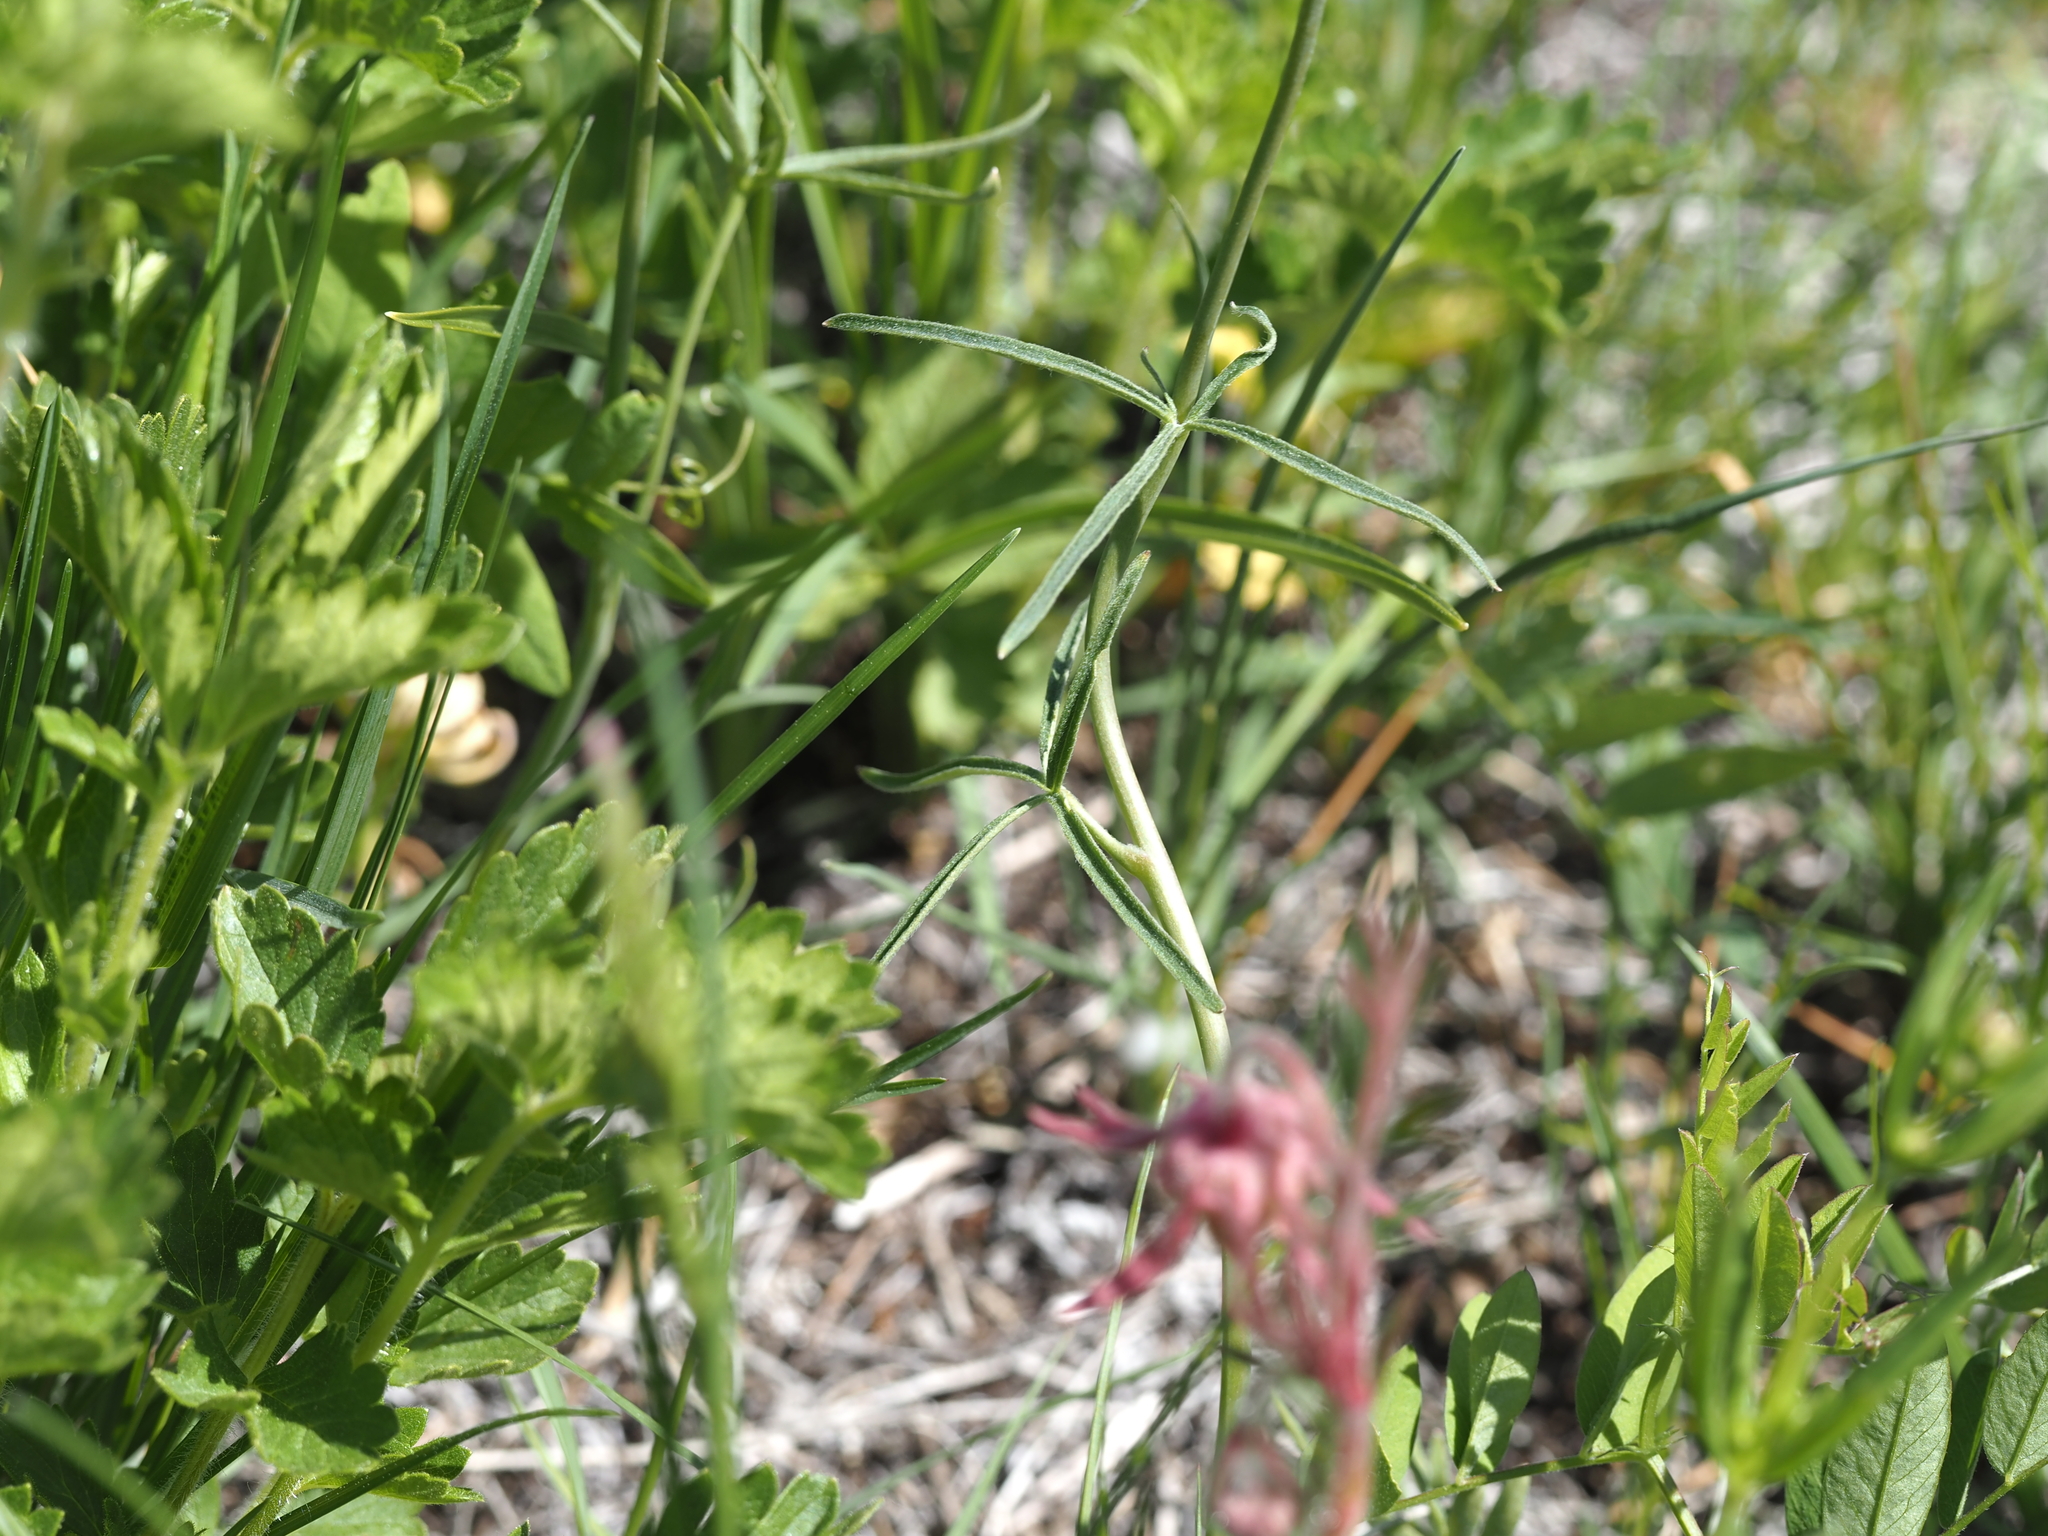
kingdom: Plantae
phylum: Tracheophyta
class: Magnoliopsida
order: Ranunculales
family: Ranunculaceae
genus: Delphinium
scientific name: Delphinium nuttallianum
